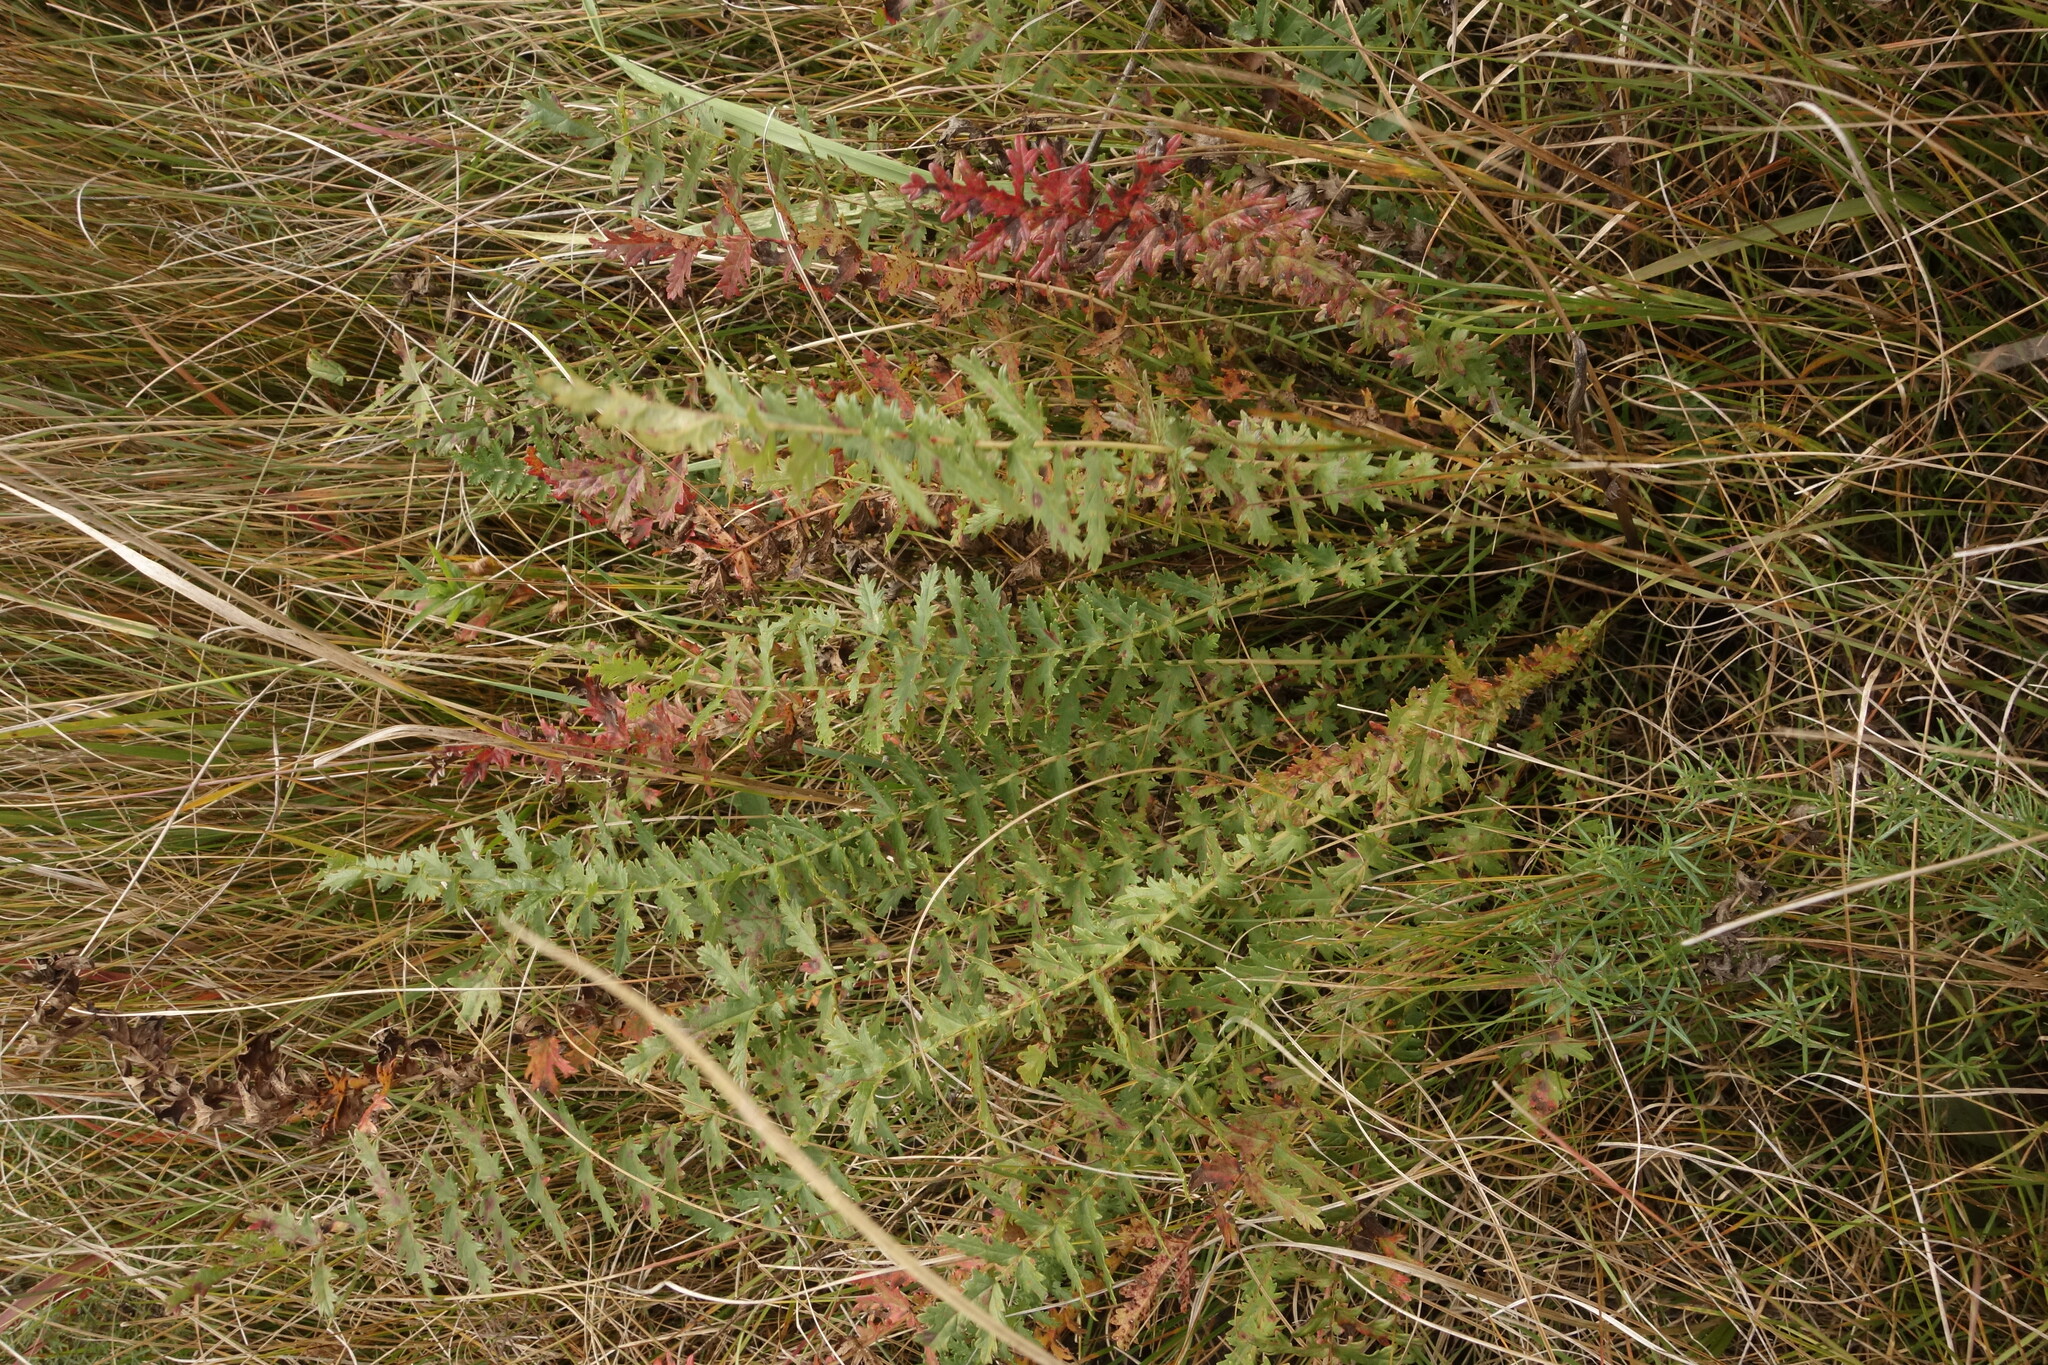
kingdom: Plantae
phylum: Tracheophyta
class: Magnoliopsida
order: Rosales
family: Rosaceae
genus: Filipendula
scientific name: Filipendula vulgaris
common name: Dropwort
